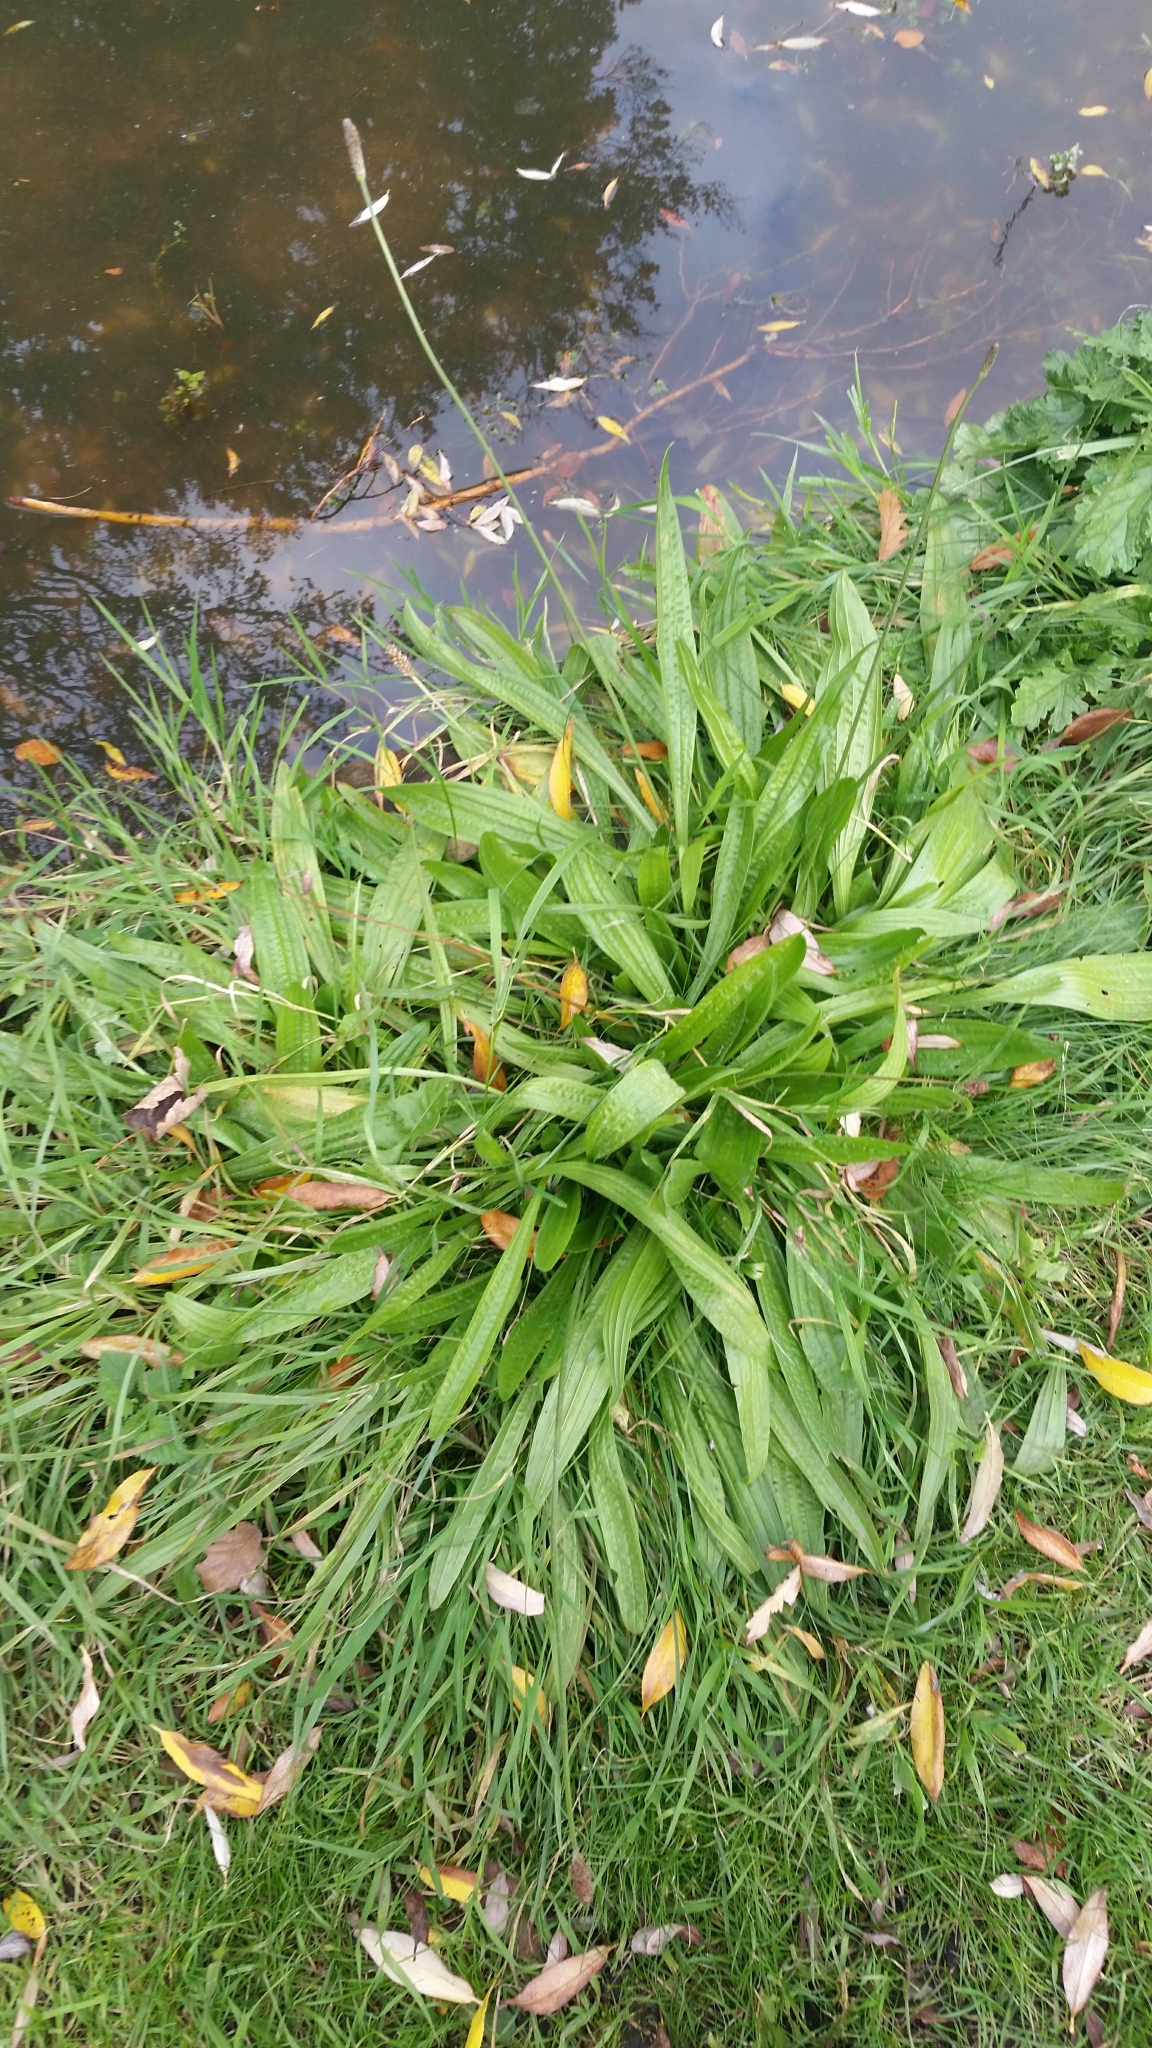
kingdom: Plantae
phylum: Tracheophyta
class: Magnoliopsida
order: Lamiales
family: Plantaginaceae
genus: Plantago
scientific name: Plantago lanceolata
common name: Ribwort plantain
